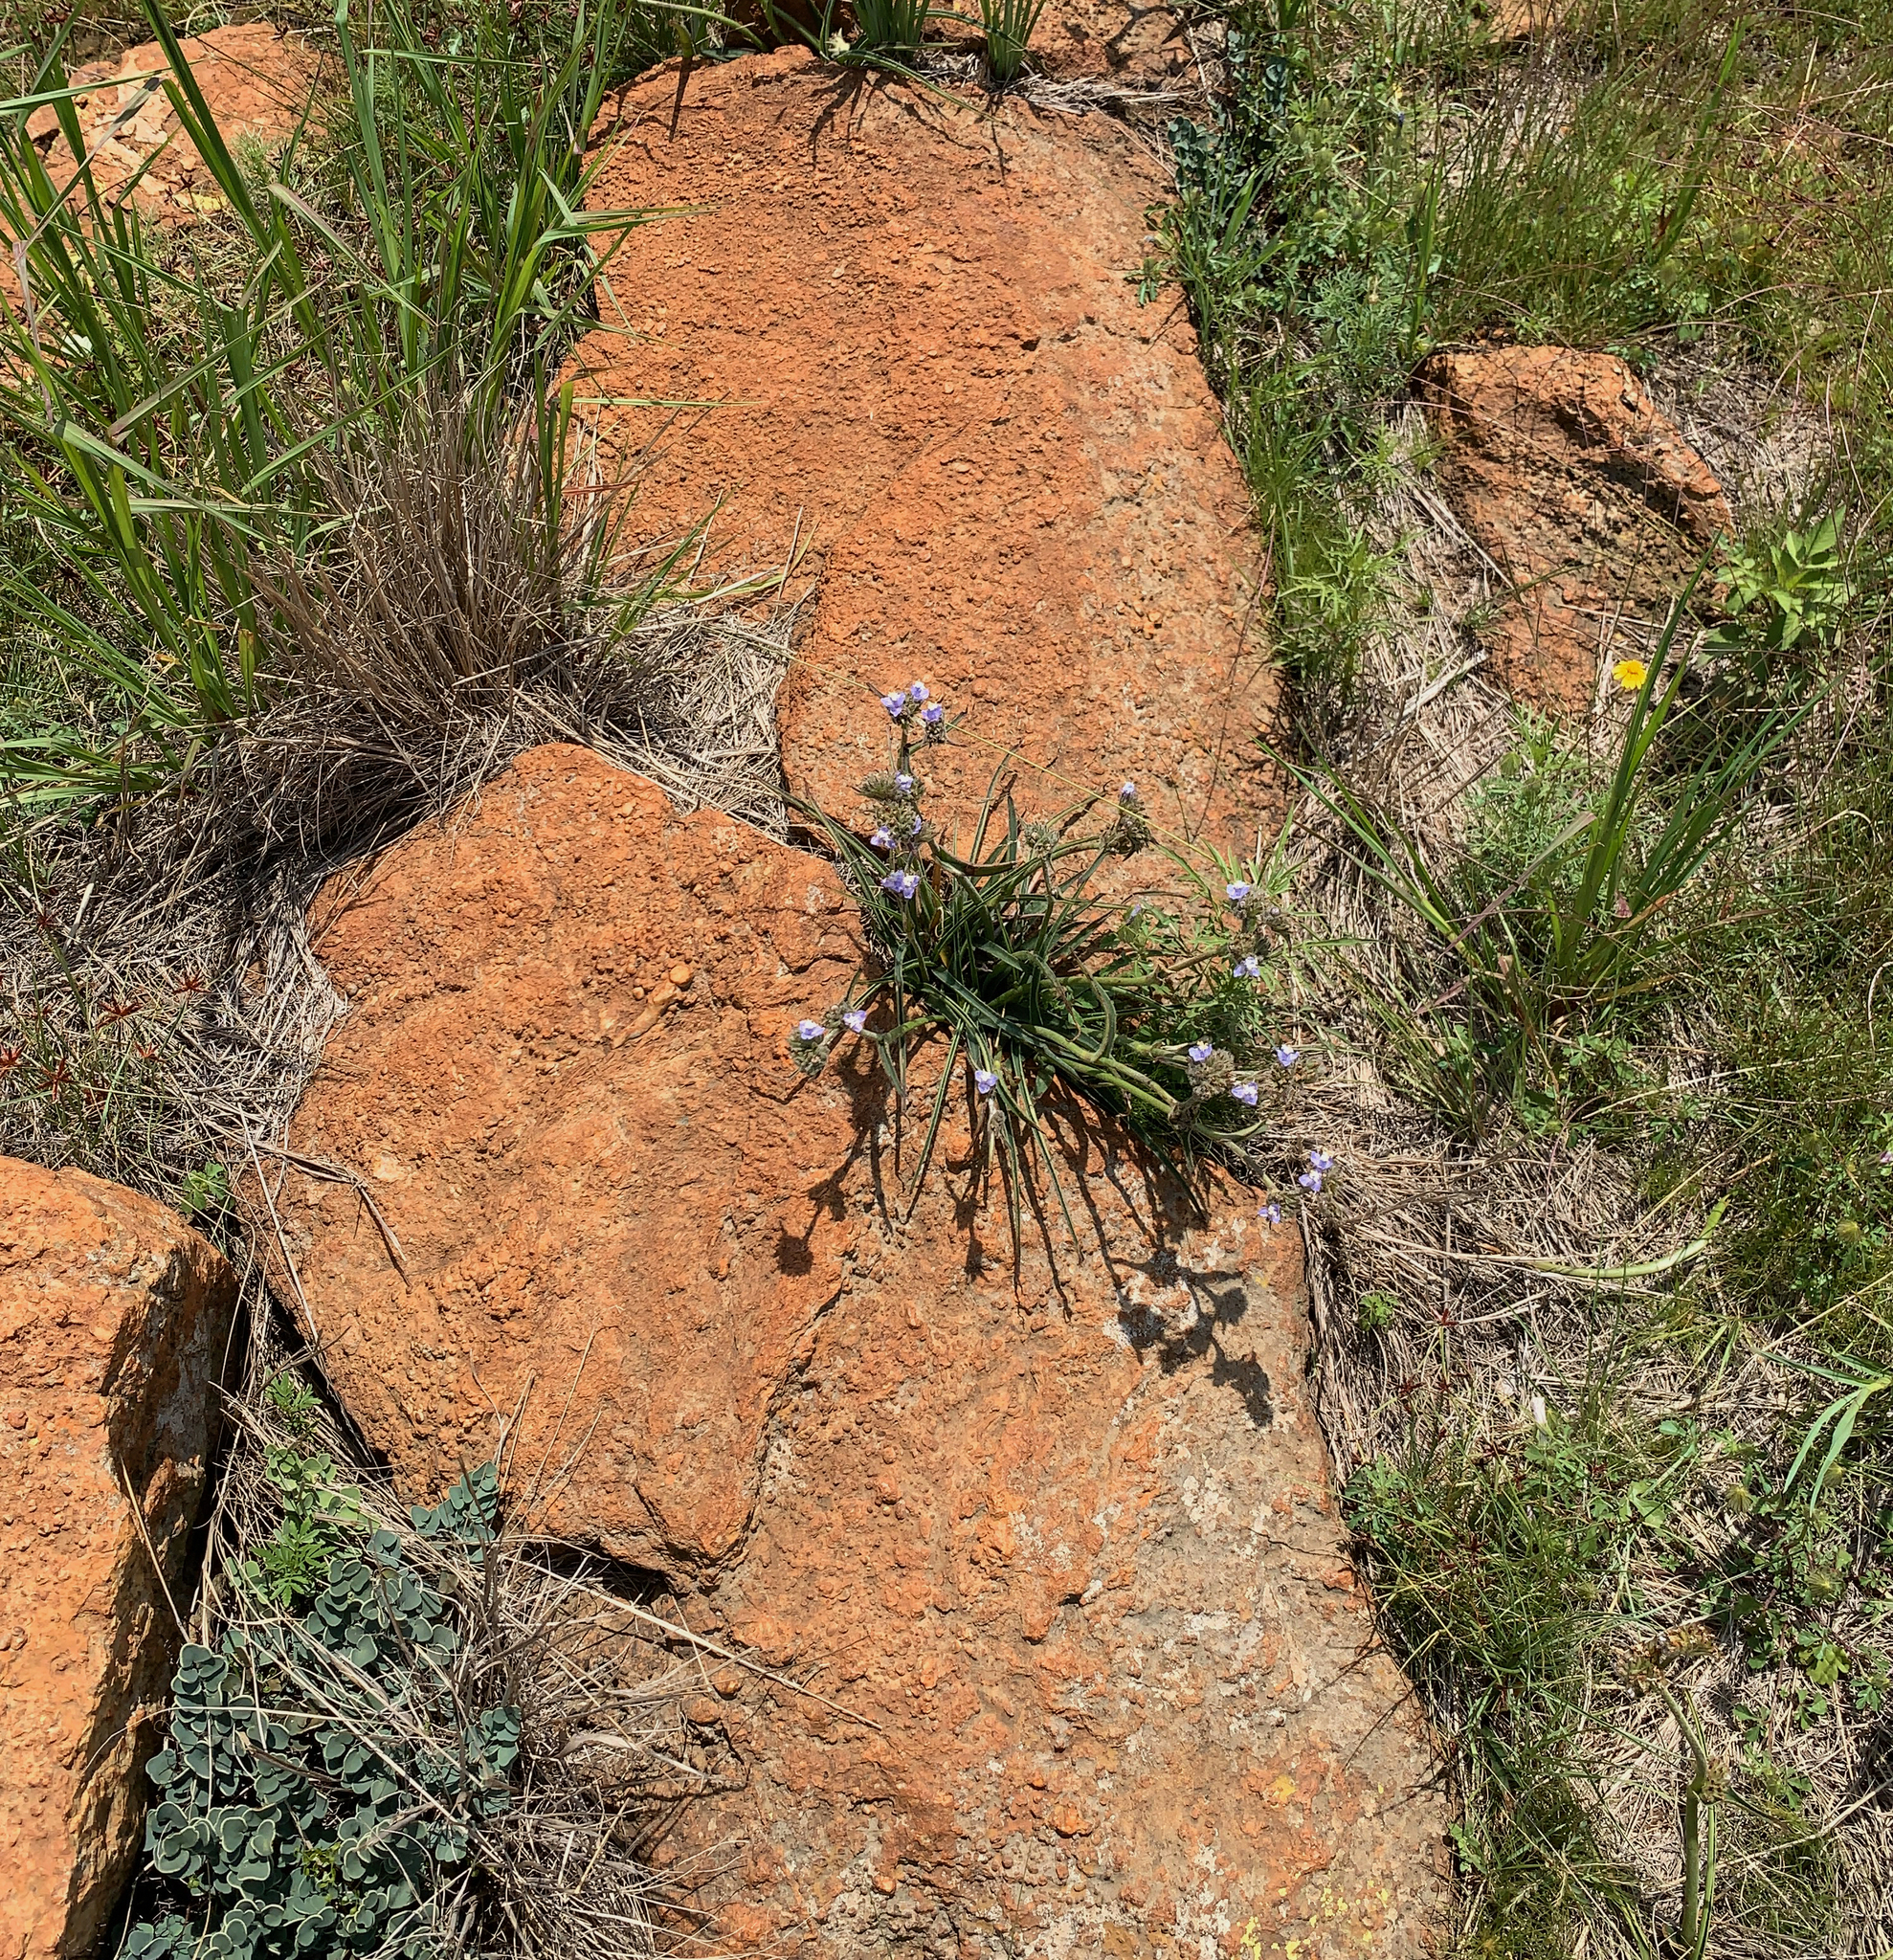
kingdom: Plantae
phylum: Tracheophyta
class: Liliopsida
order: Commelinales
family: Commelinaceae
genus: Cyanotis
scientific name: Cyanotis speciosa
